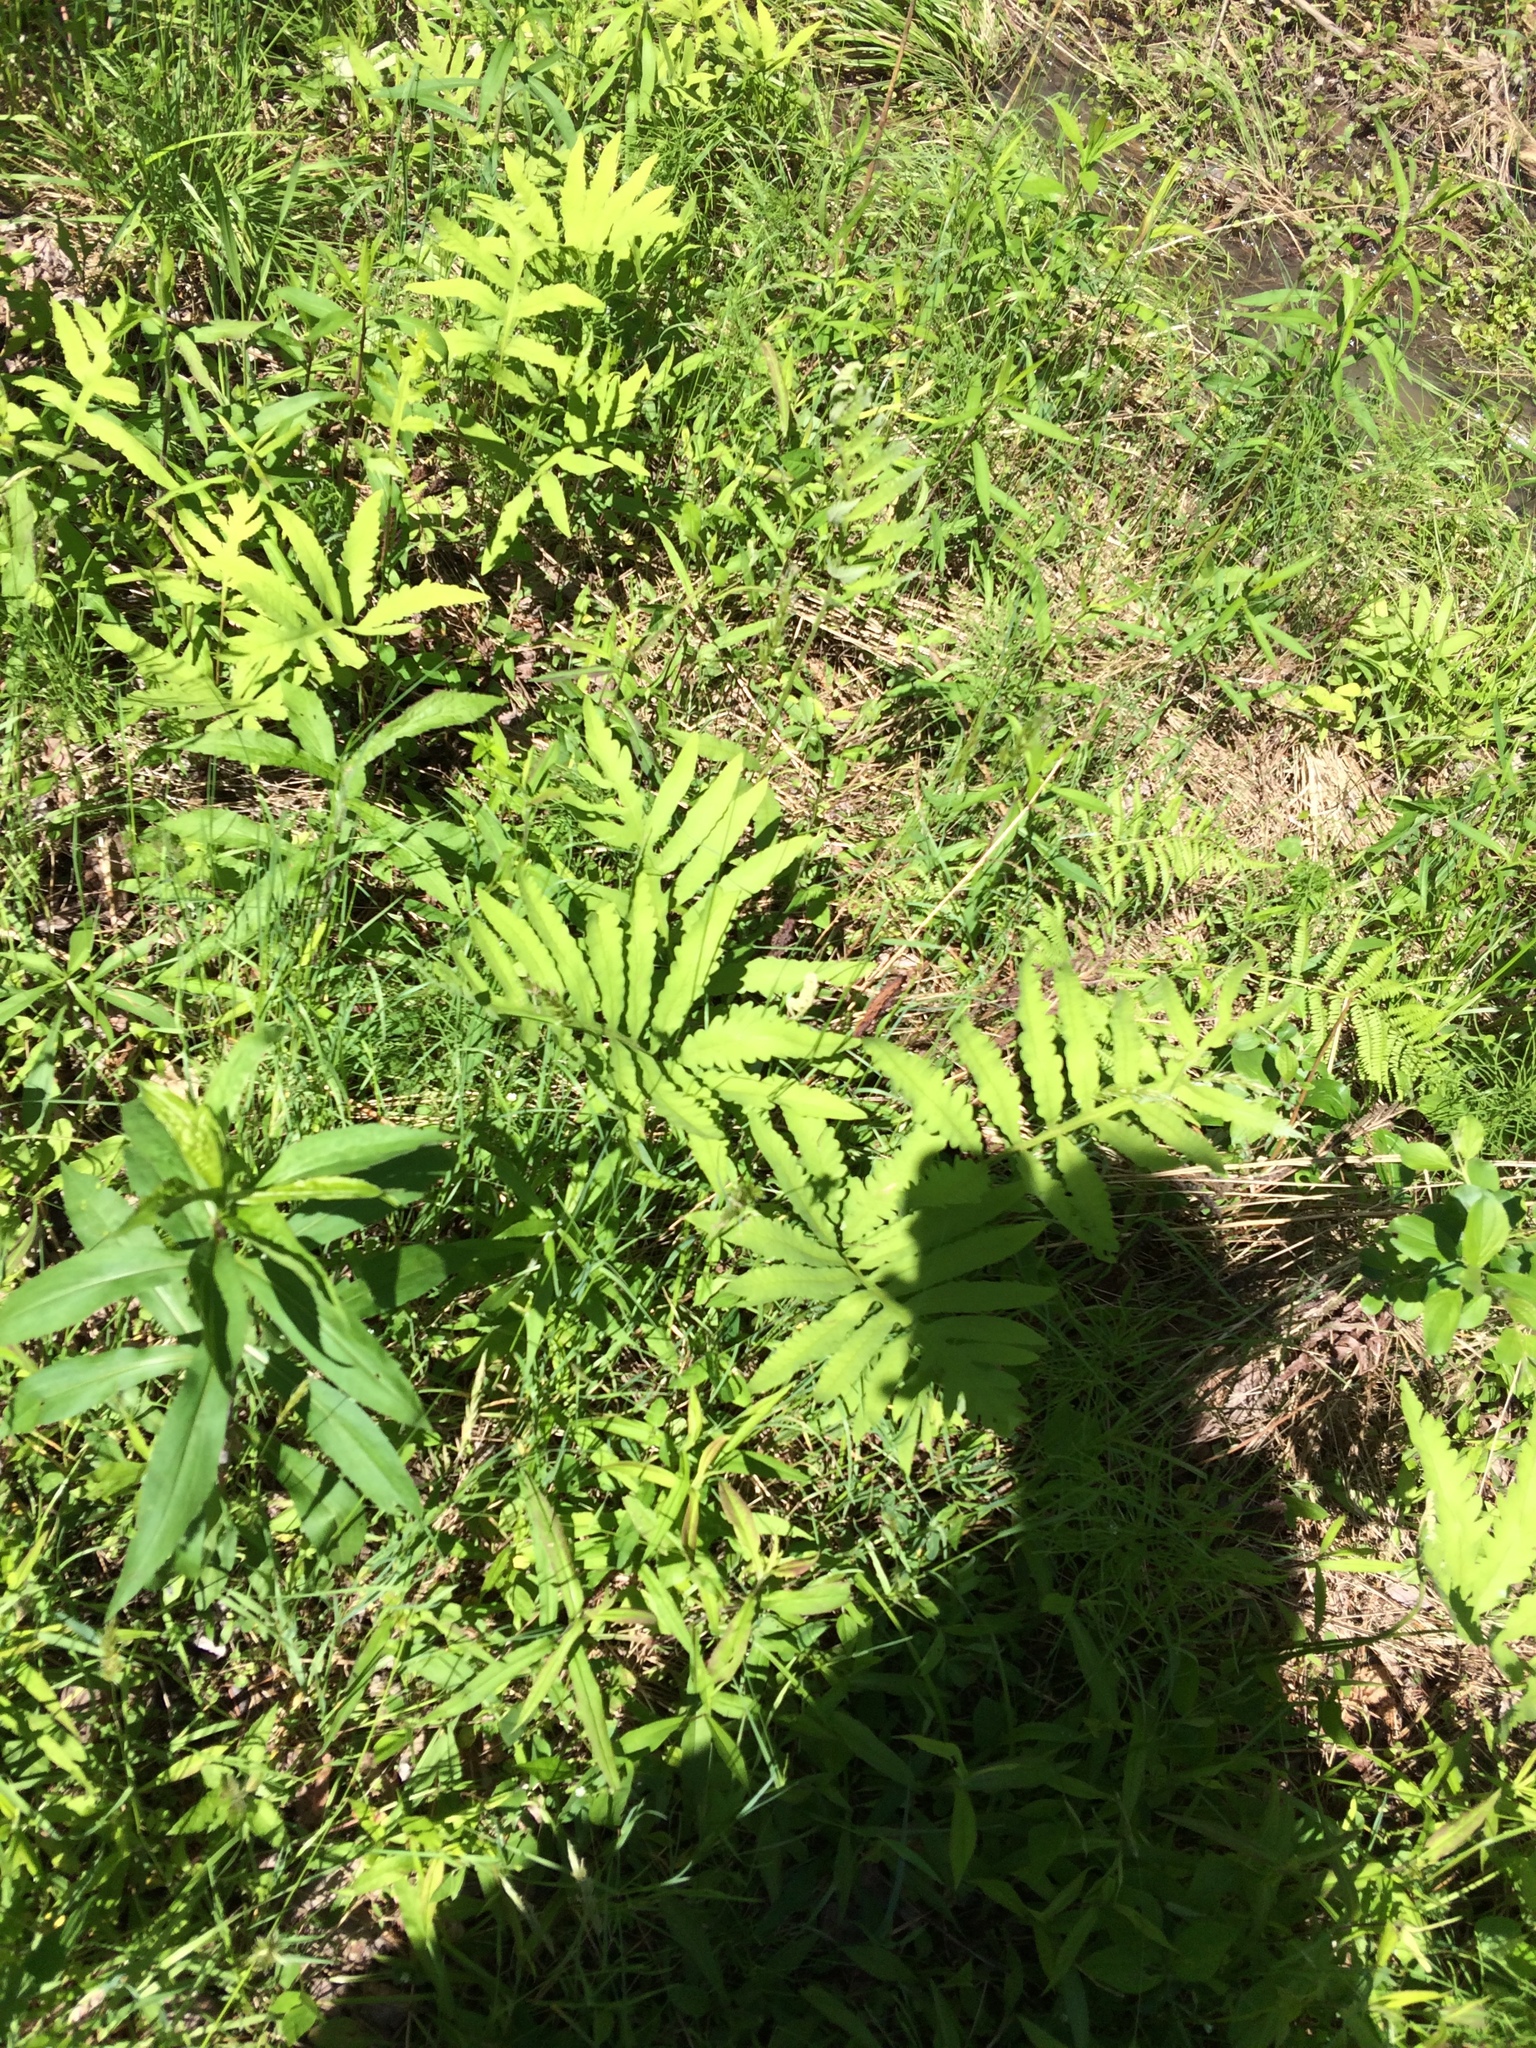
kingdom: Plantae
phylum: Tracheophyta
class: Polypodiopsida
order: Polypodiales
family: Onocleaceae
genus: Onoclea
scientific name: Onoclea sensibilis
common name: Sensitive fern
